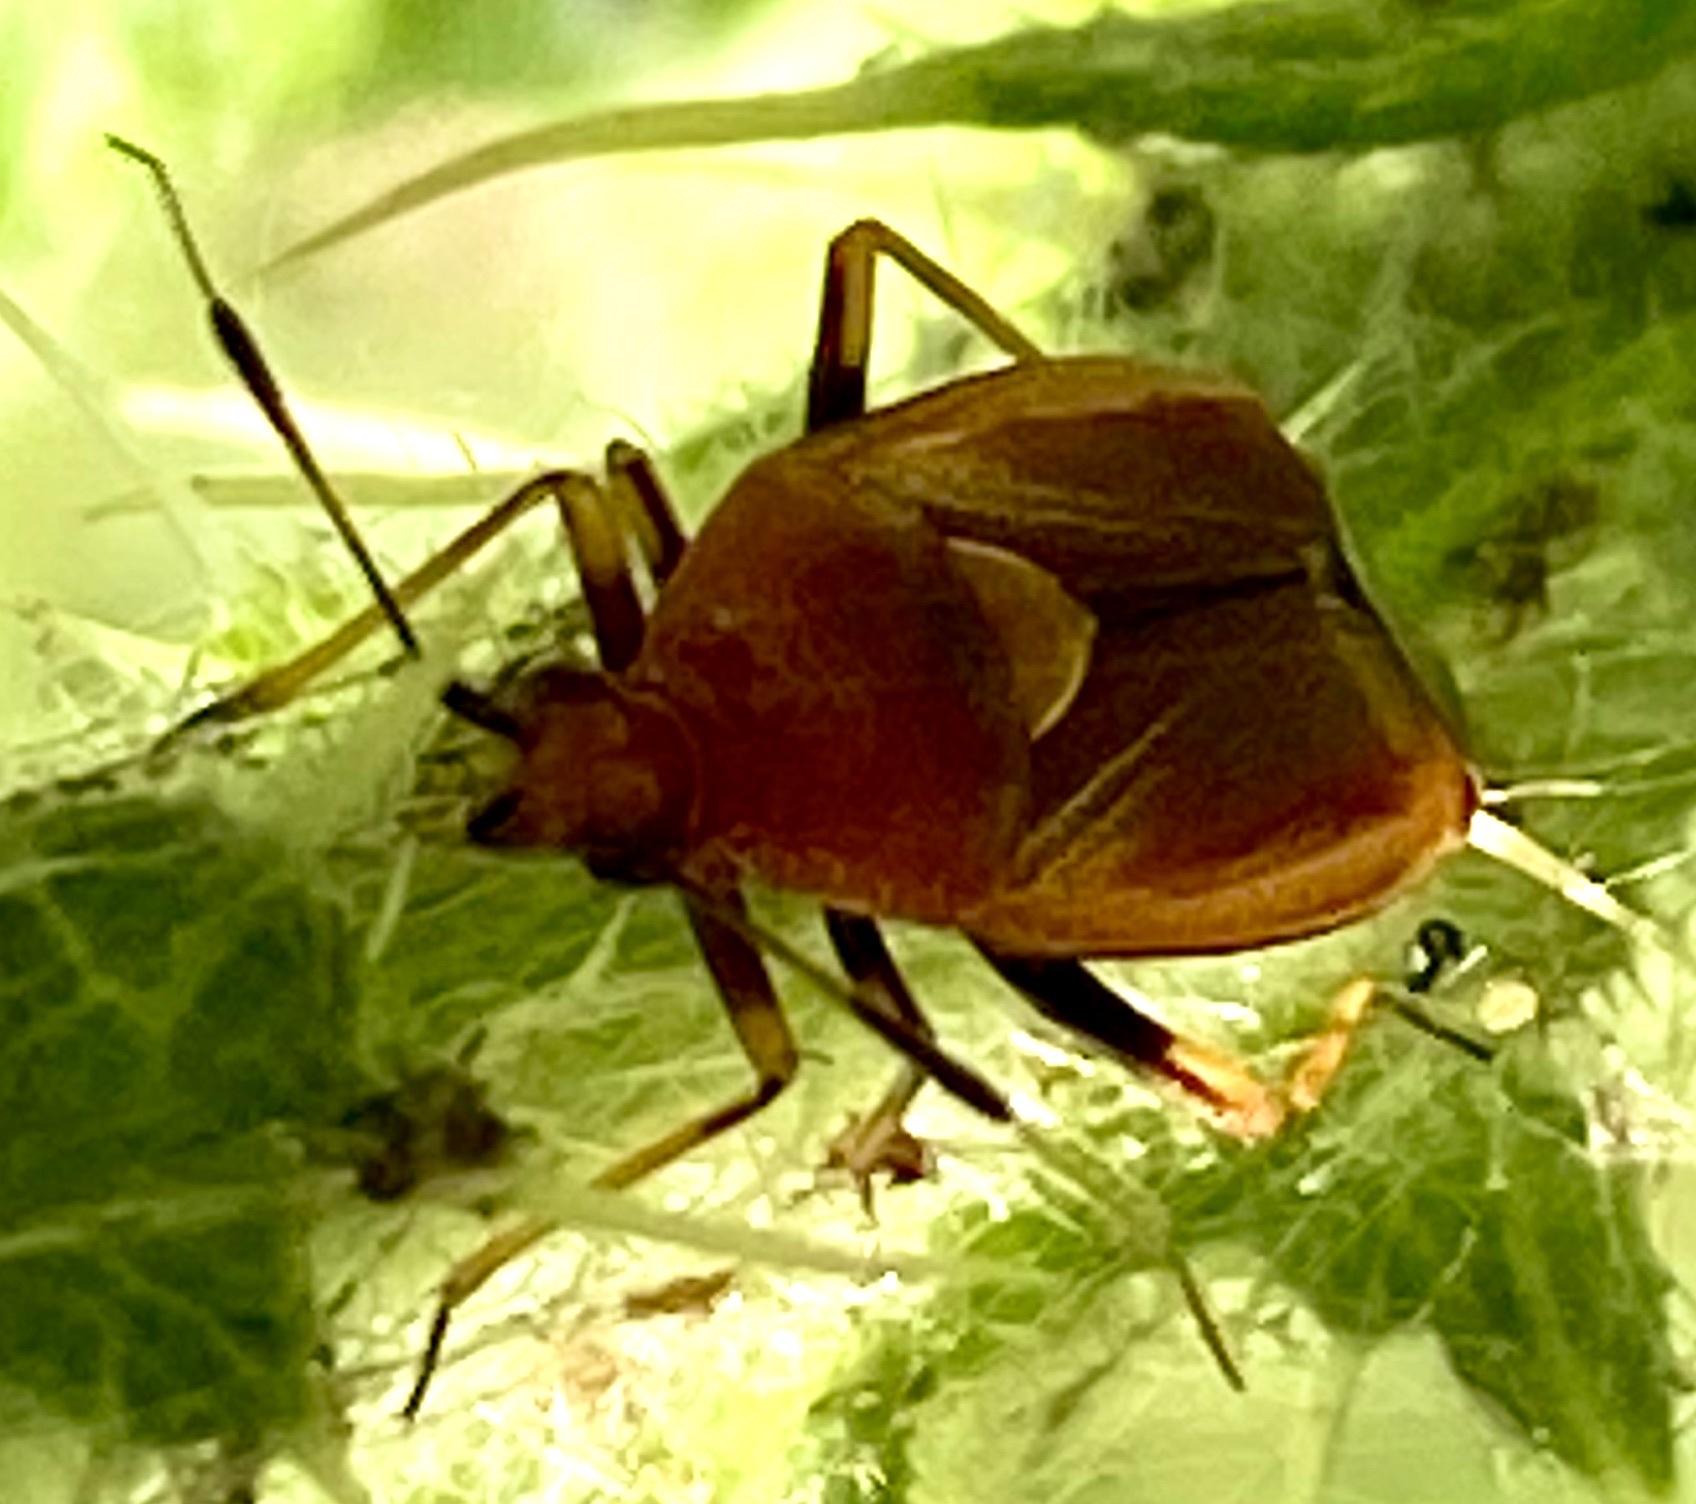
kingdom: Animalia
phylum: Arthropoda
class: Insecta
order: Hemiptera
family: Miridae
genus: Deraeocoris
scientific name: Deraeocoris ruber
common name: Plant bug
